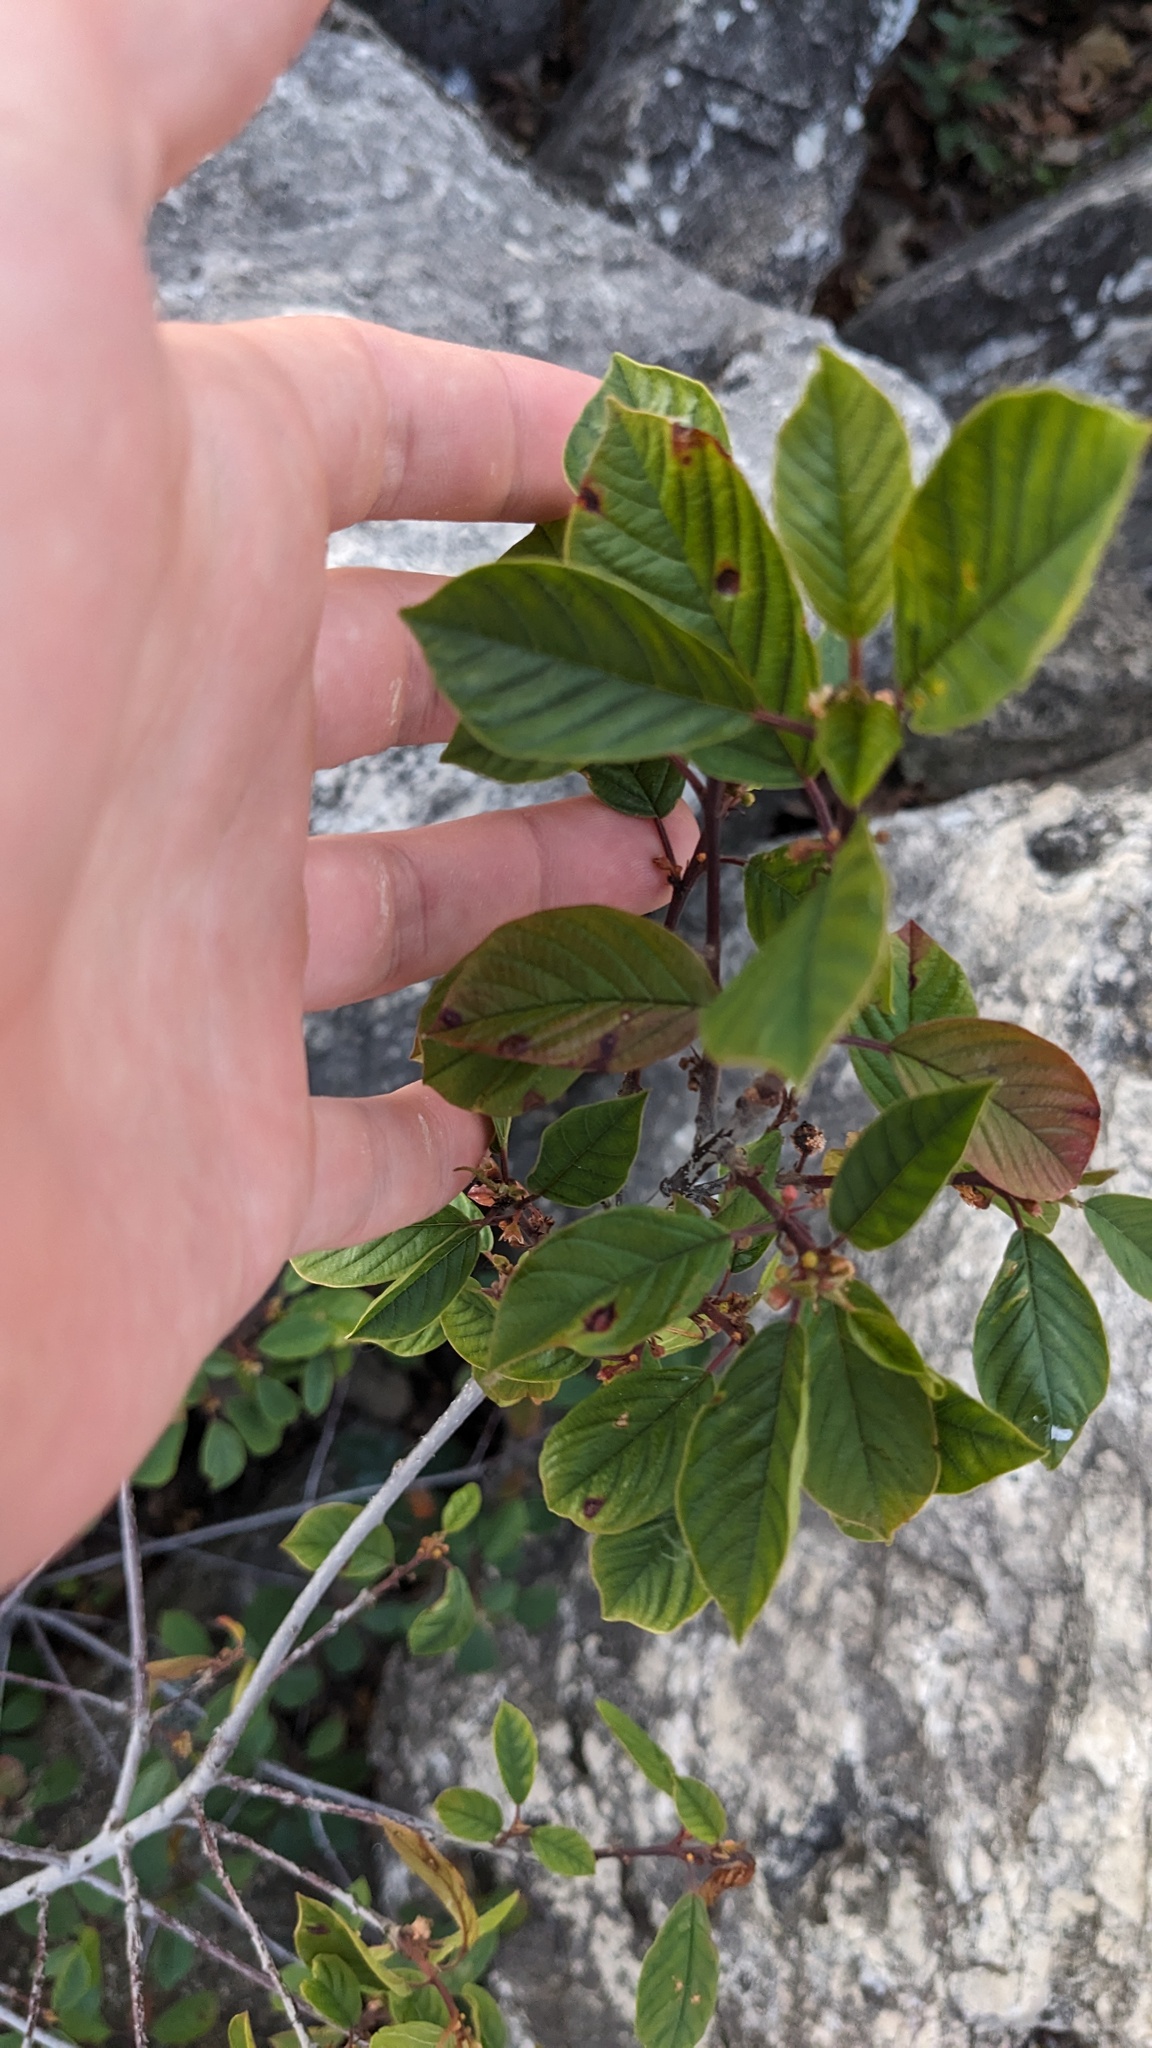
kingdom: Plantae
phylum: Tracheophyta
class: Magnoliopsida
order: Rosales
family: Rhamnaceae
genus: Frangula
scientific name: Frangula alnus
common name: Alder buckthorn
